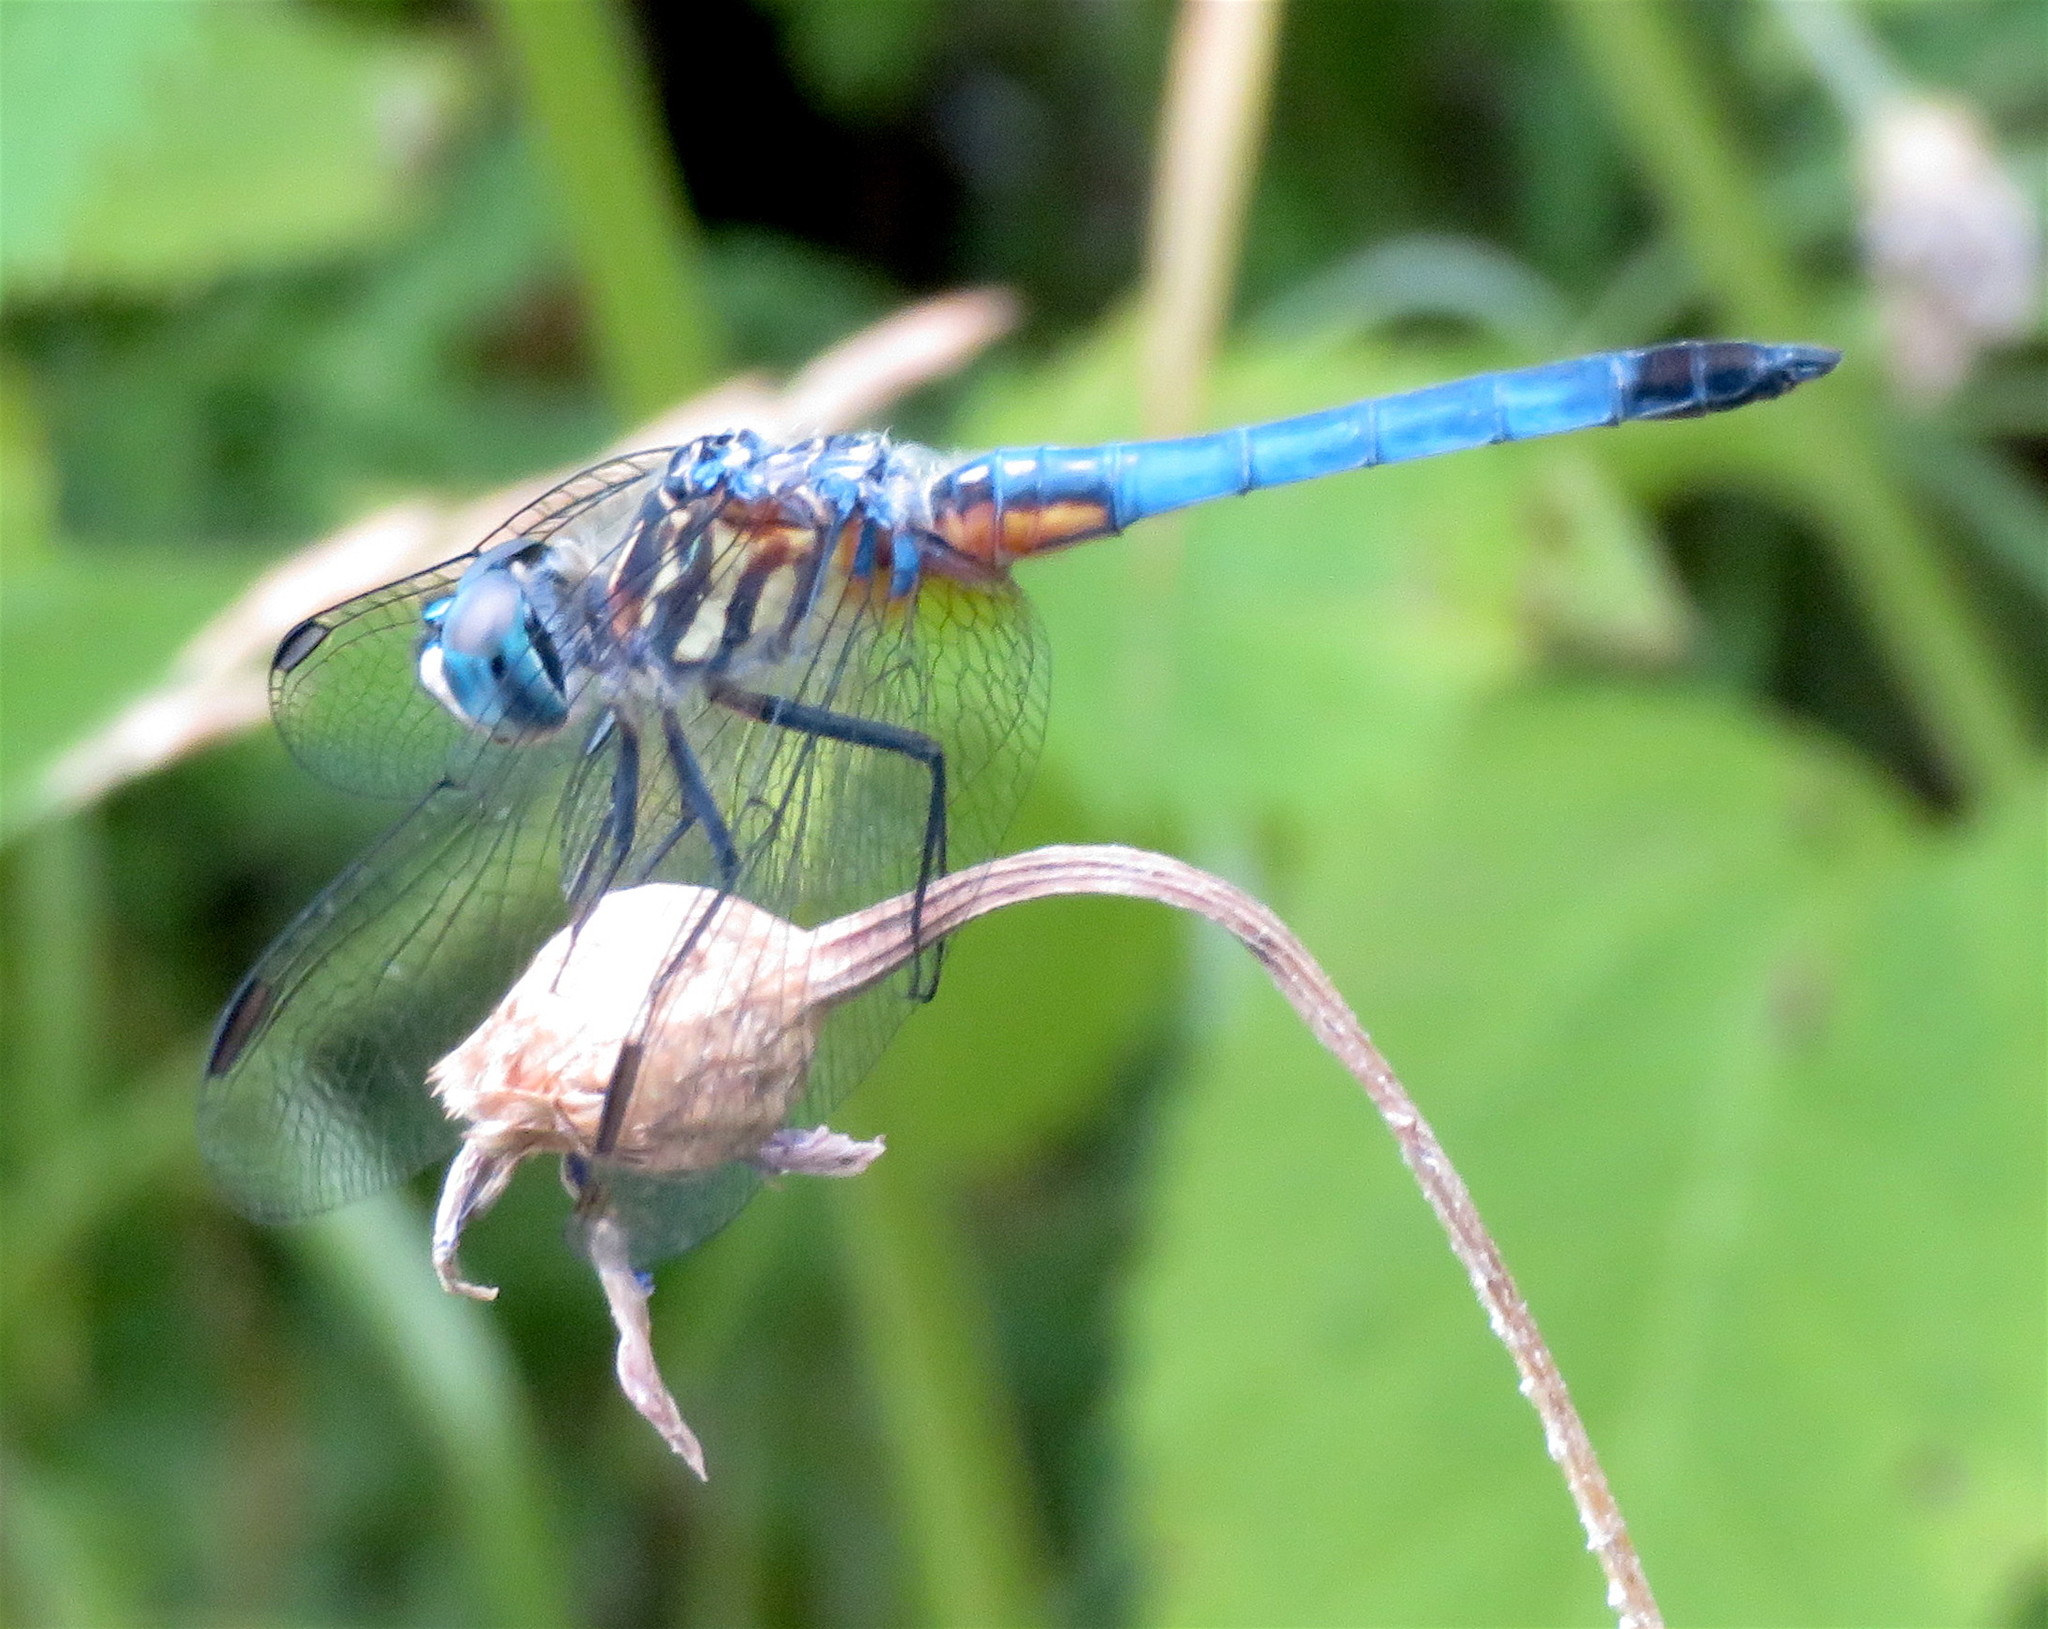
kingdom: Animalia
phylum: Arthropoda
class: Insecta
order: Odonata
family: Libellulidae
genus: Pachydiplax
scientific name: Pachydiplax longipennis
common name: Blue dasher
